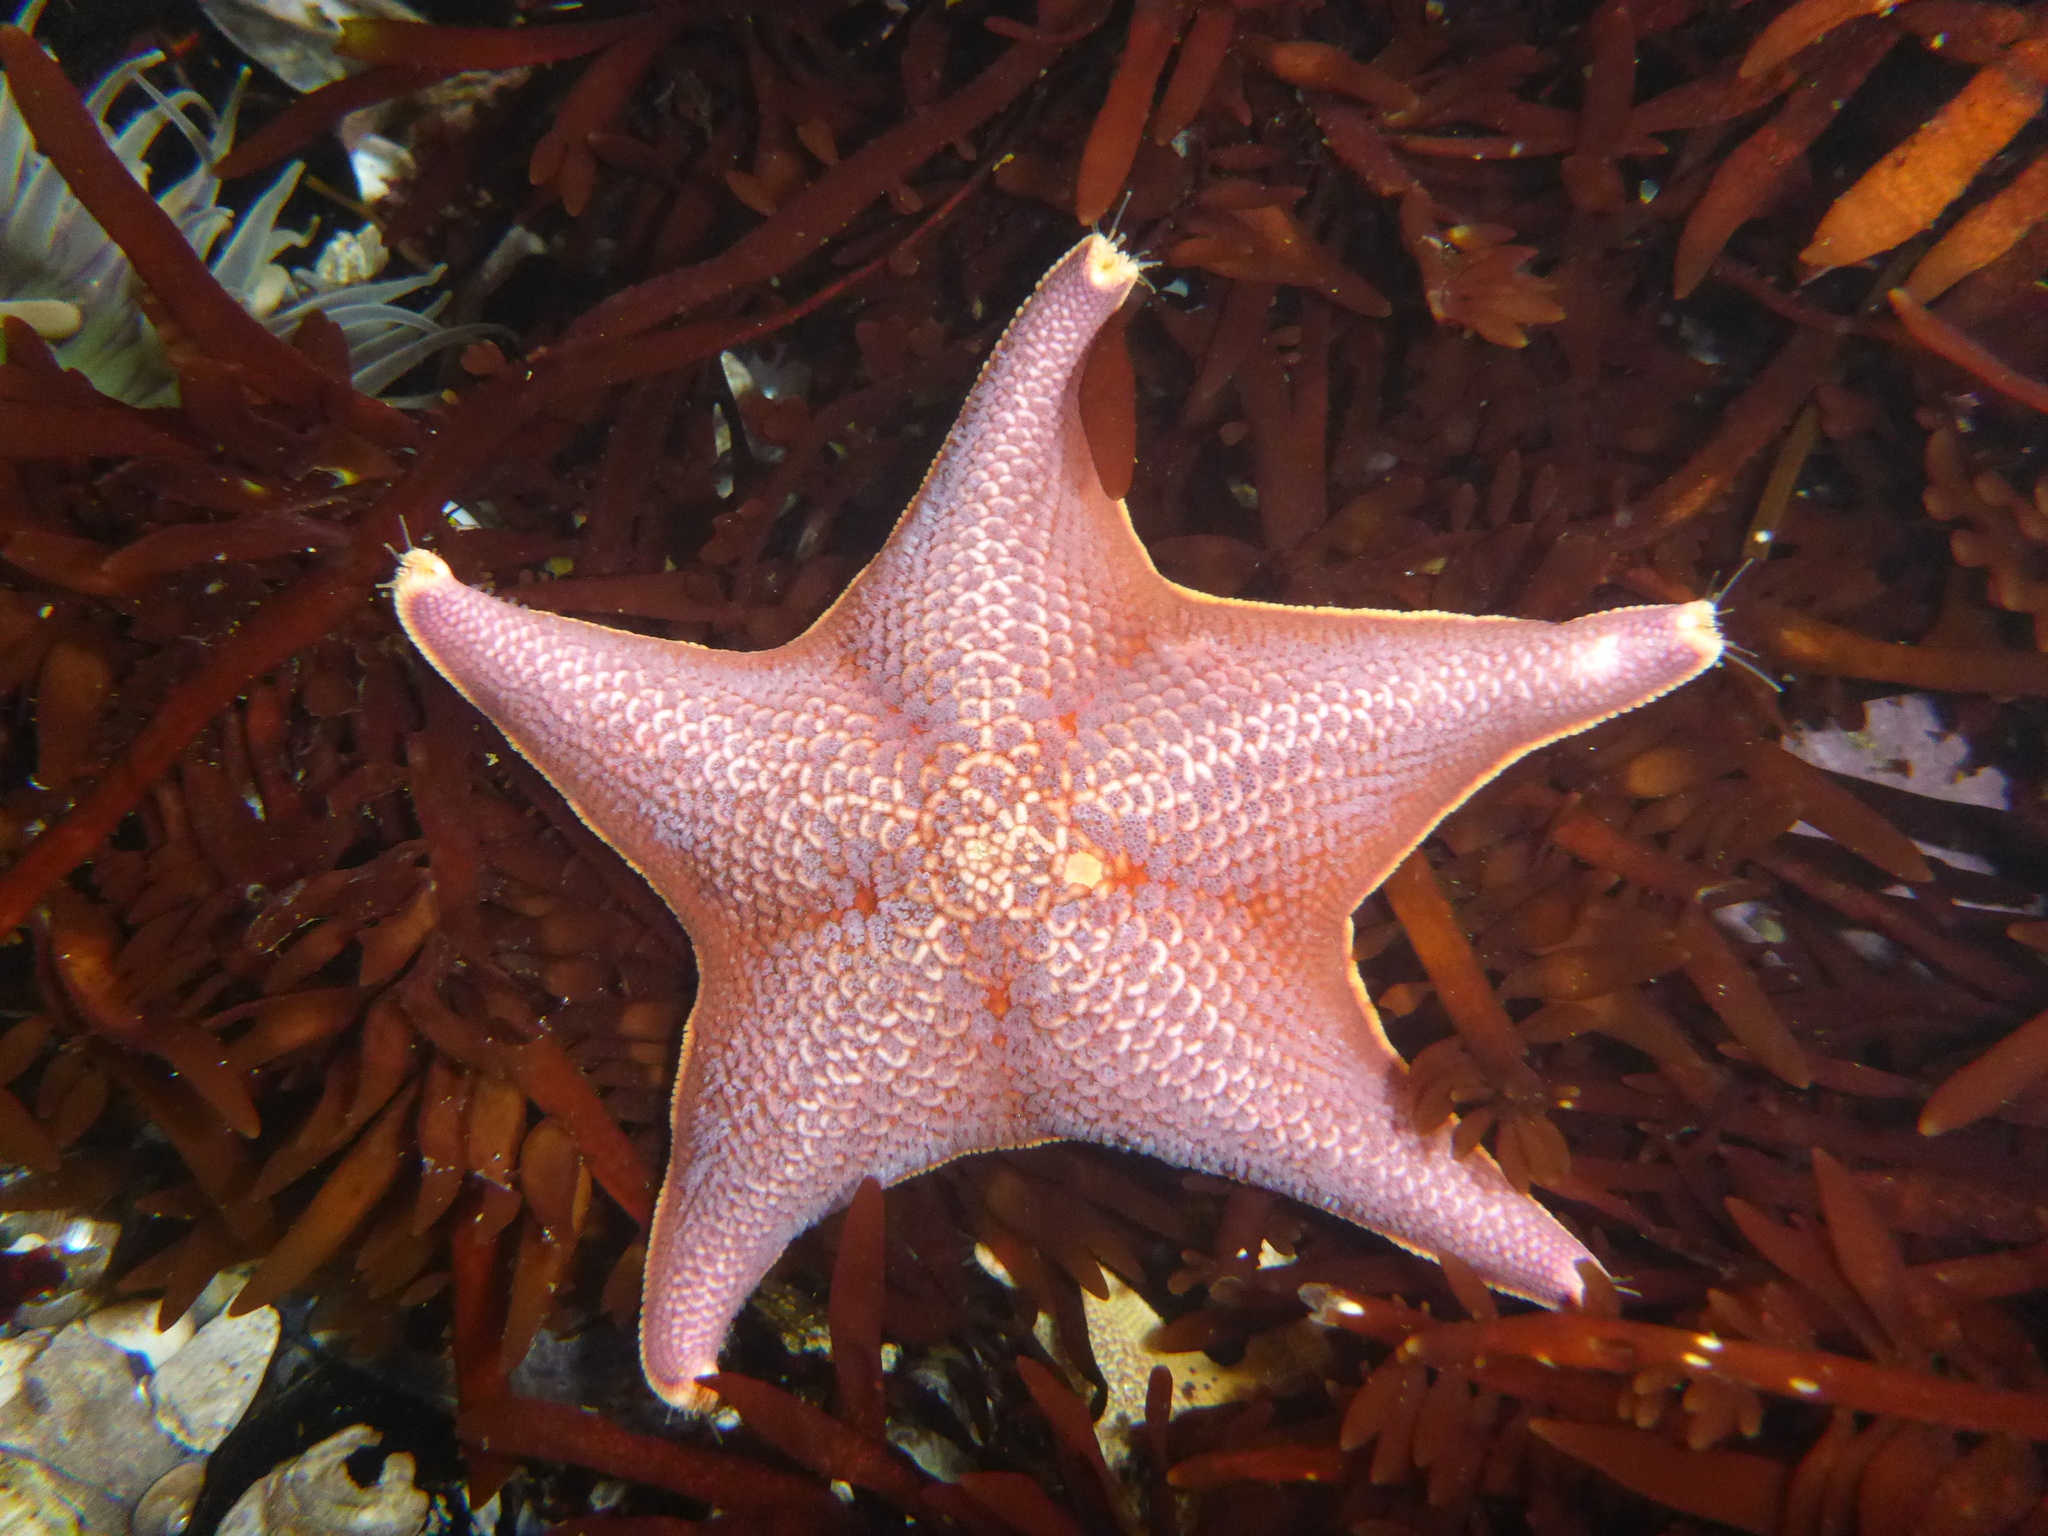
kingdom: Animalia
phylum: Echinodermata
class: Asteroidea
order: Valvatida
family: Asterinidae
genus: Patiria
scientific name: Patiria miniata
